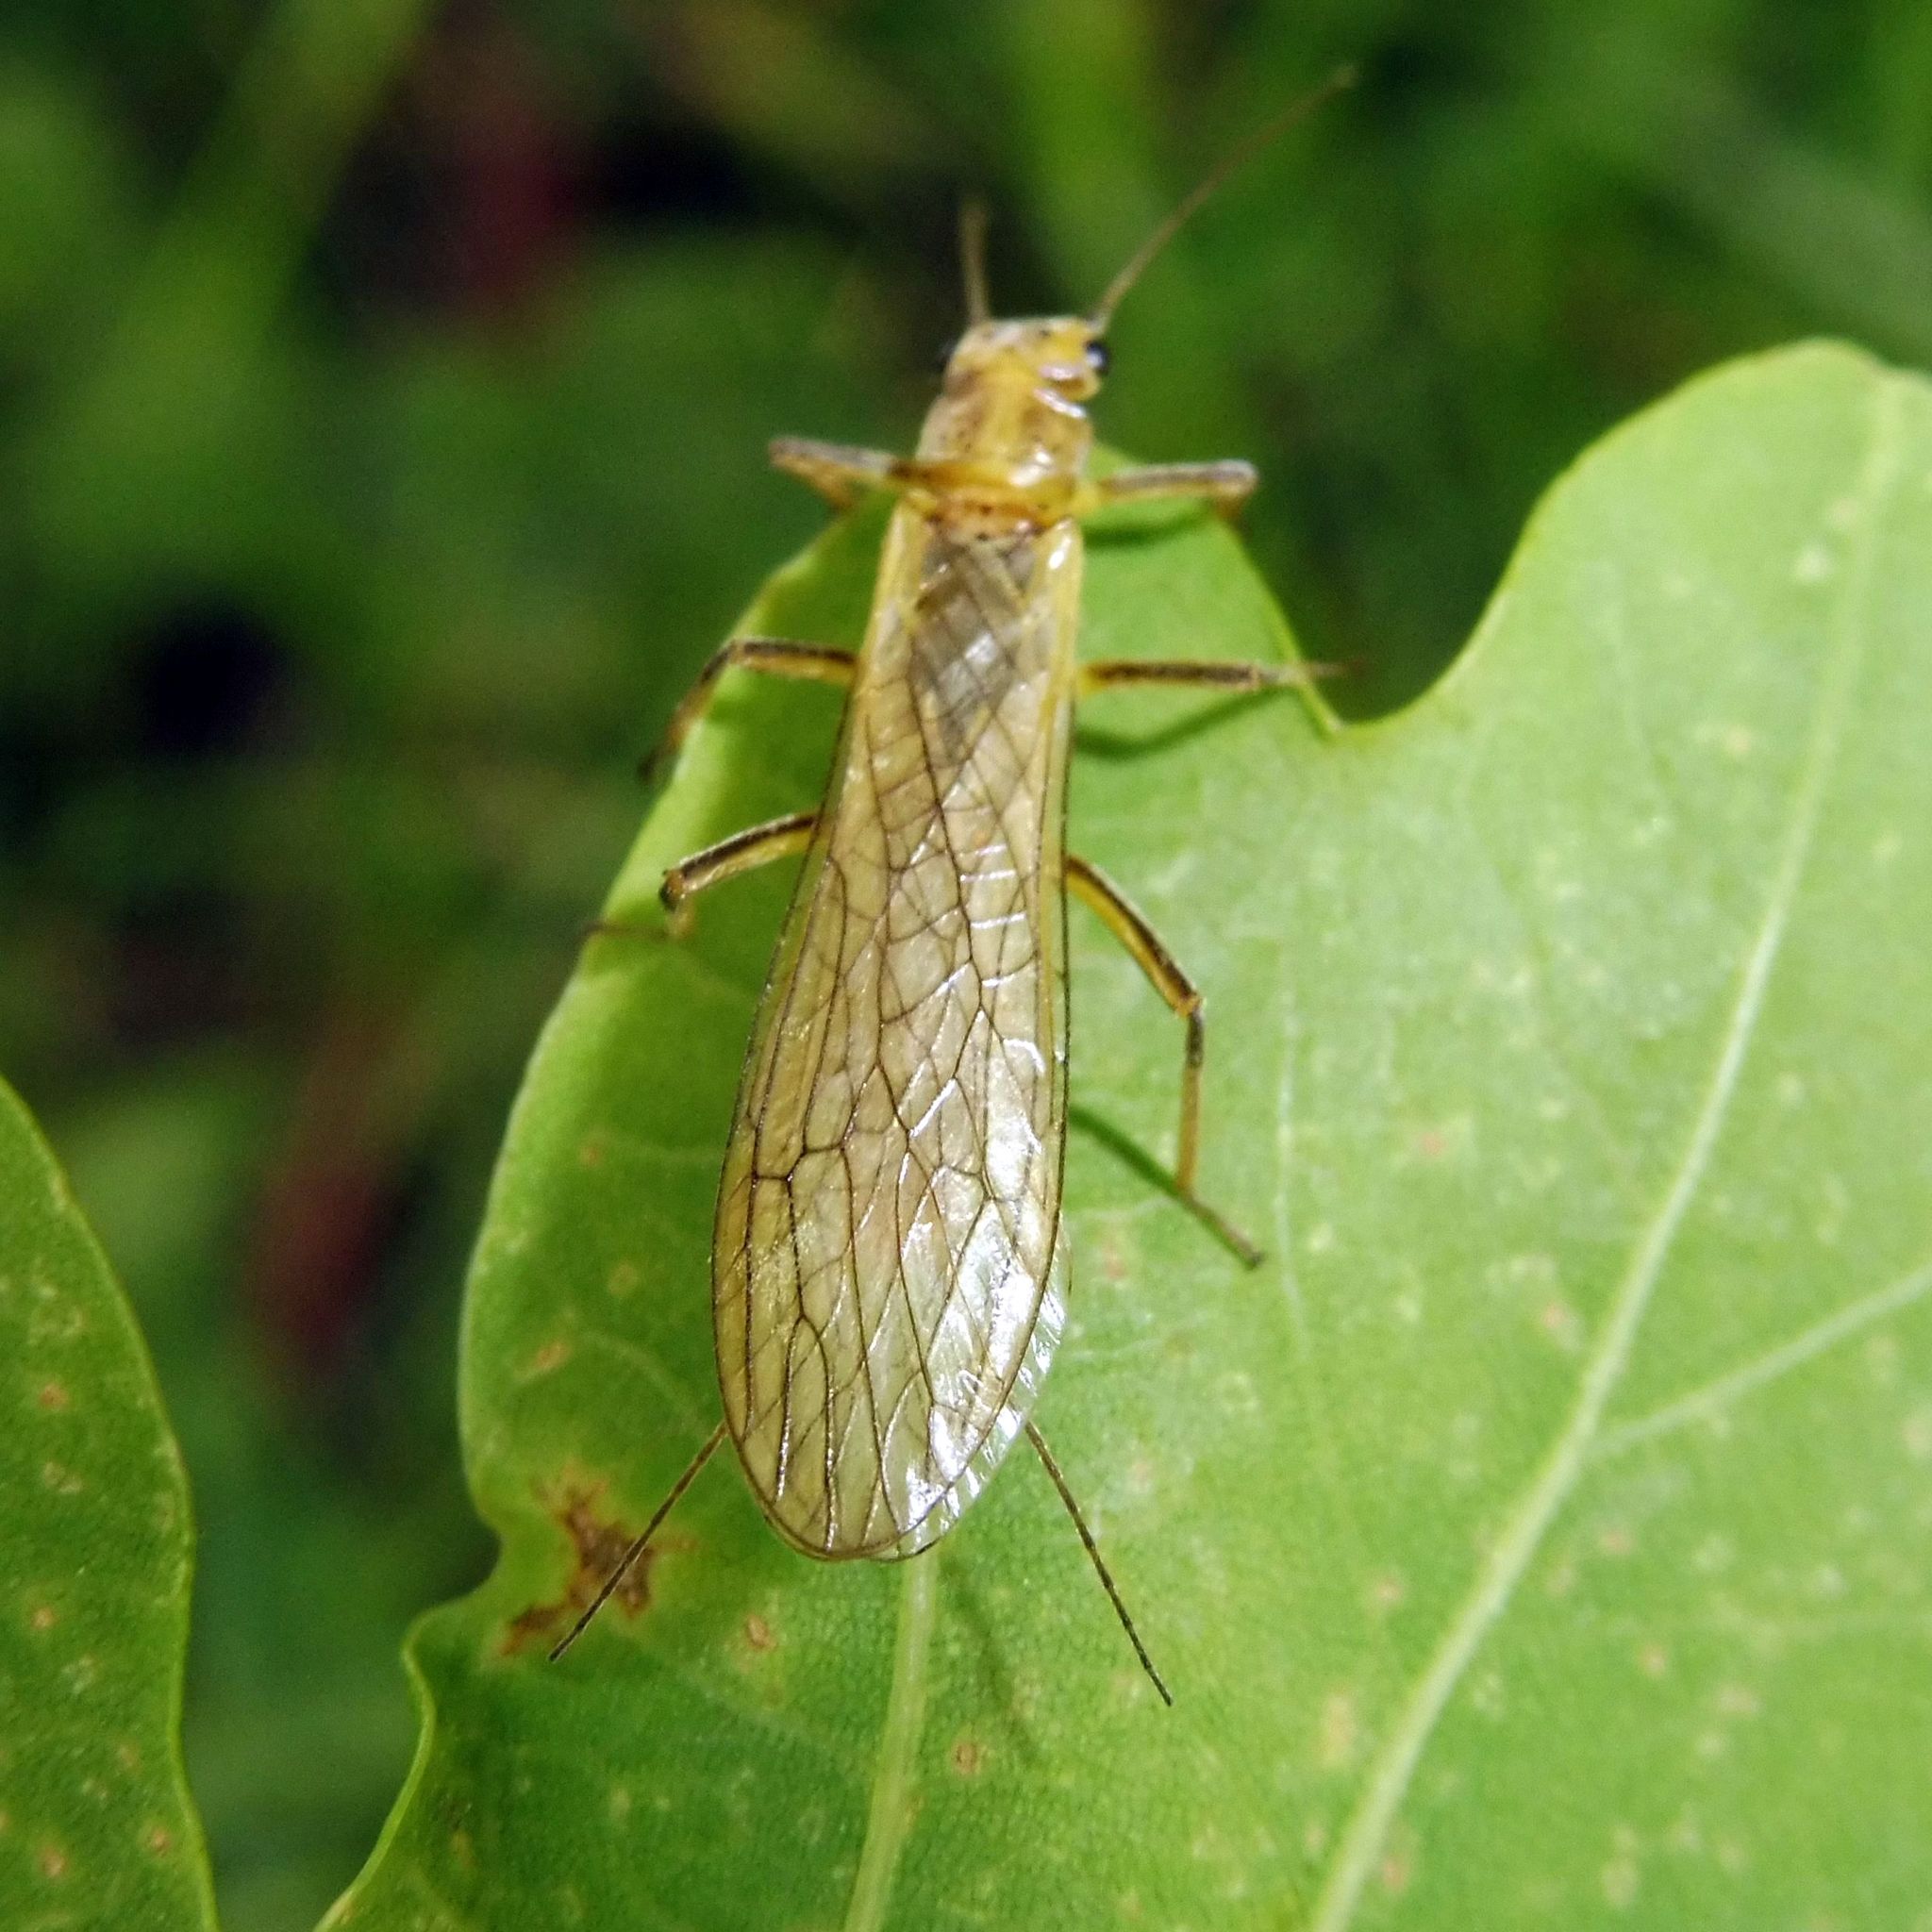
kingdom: Animalia
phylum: Arthropoda
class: Insecta
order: Plecoptera
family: Perlodidae
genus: Isoperla
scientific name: Isoperla
